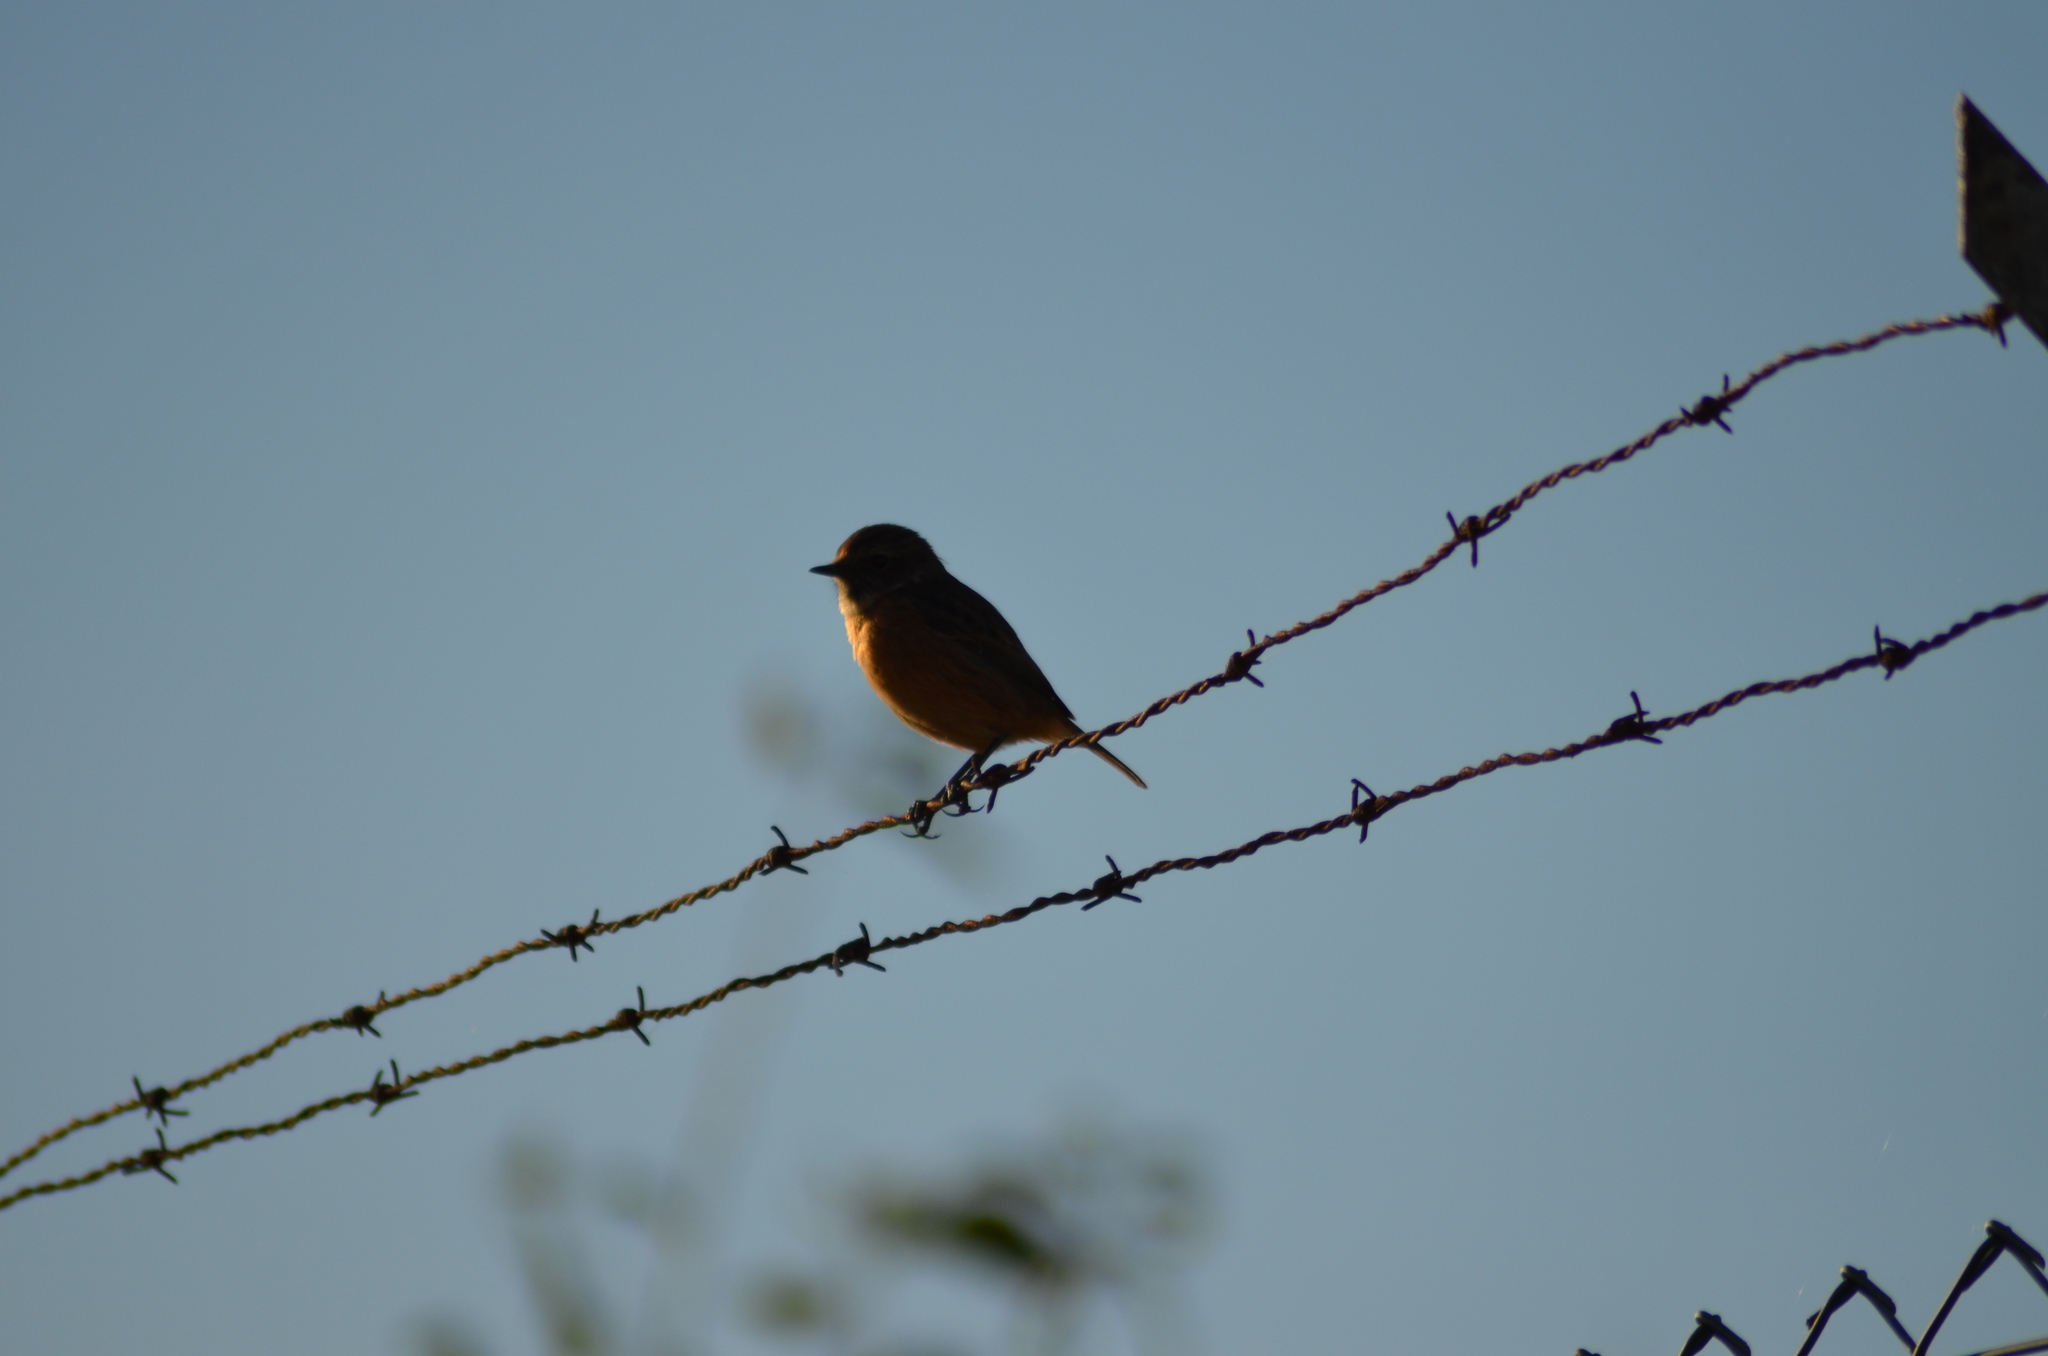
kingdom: Animalia
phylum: Chordata
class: Aves
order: Passeriformes
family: Muscicapidae
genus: Saxicola
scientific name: Saxicola rubicola
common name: European stonechat
